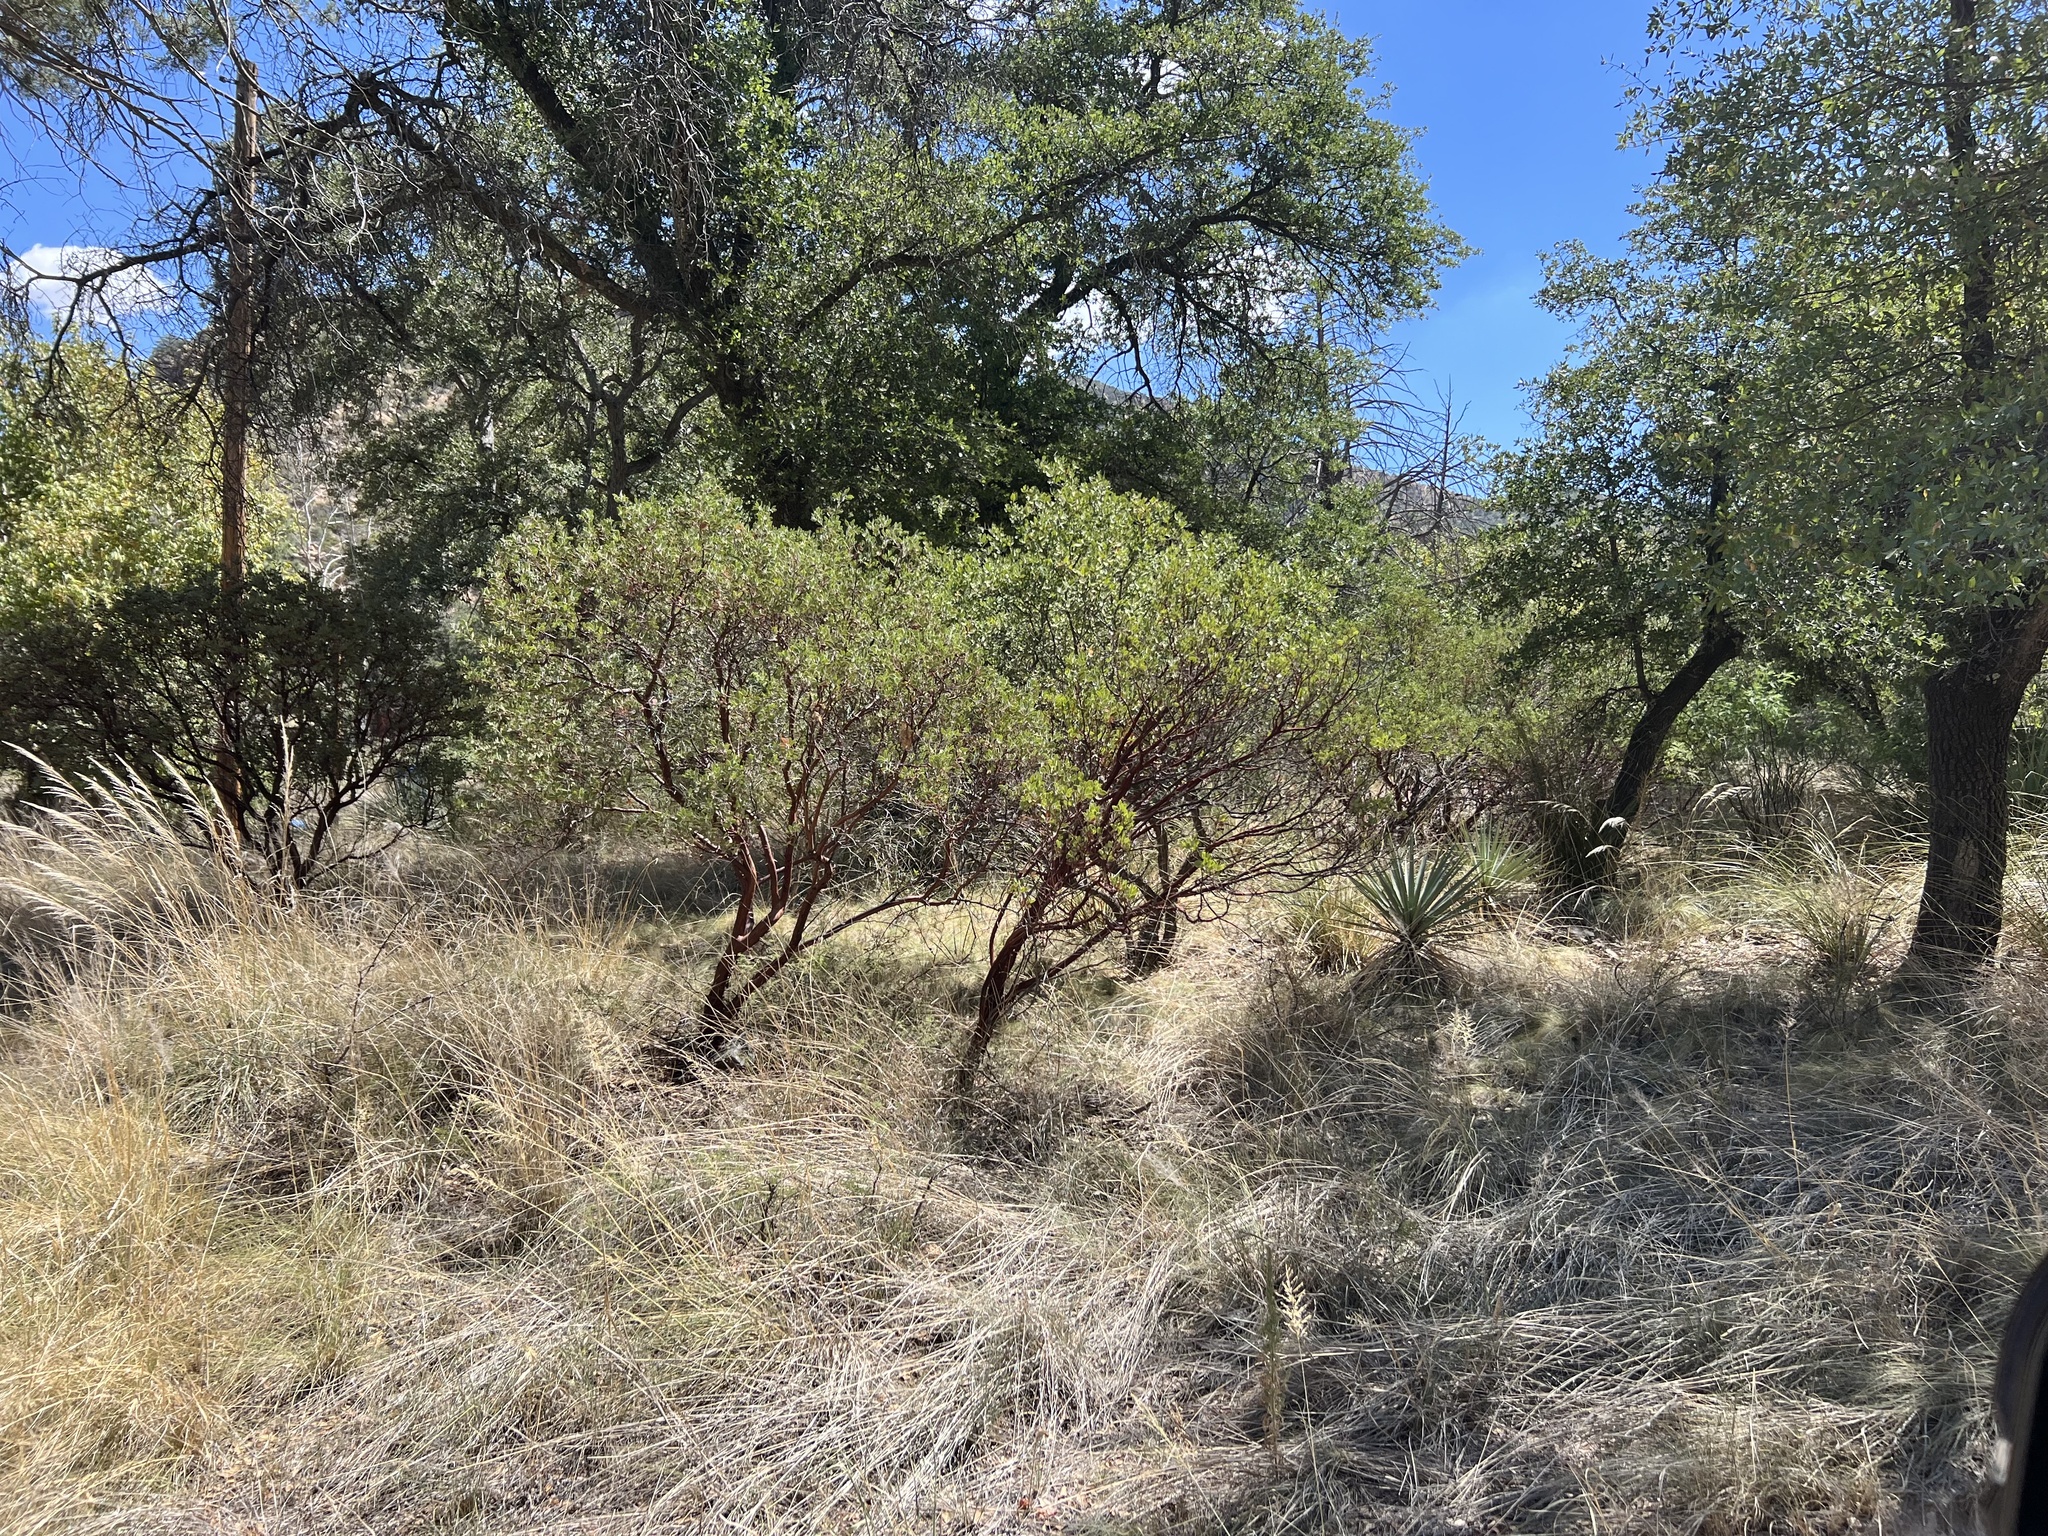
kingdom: Plantae
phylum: Tracheophyta
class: Magnoliopsida
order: Ericales
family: Ericaceae
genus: Arctostaphylos
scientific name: Arctostaphylos pungens
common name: Mexican manzanita
